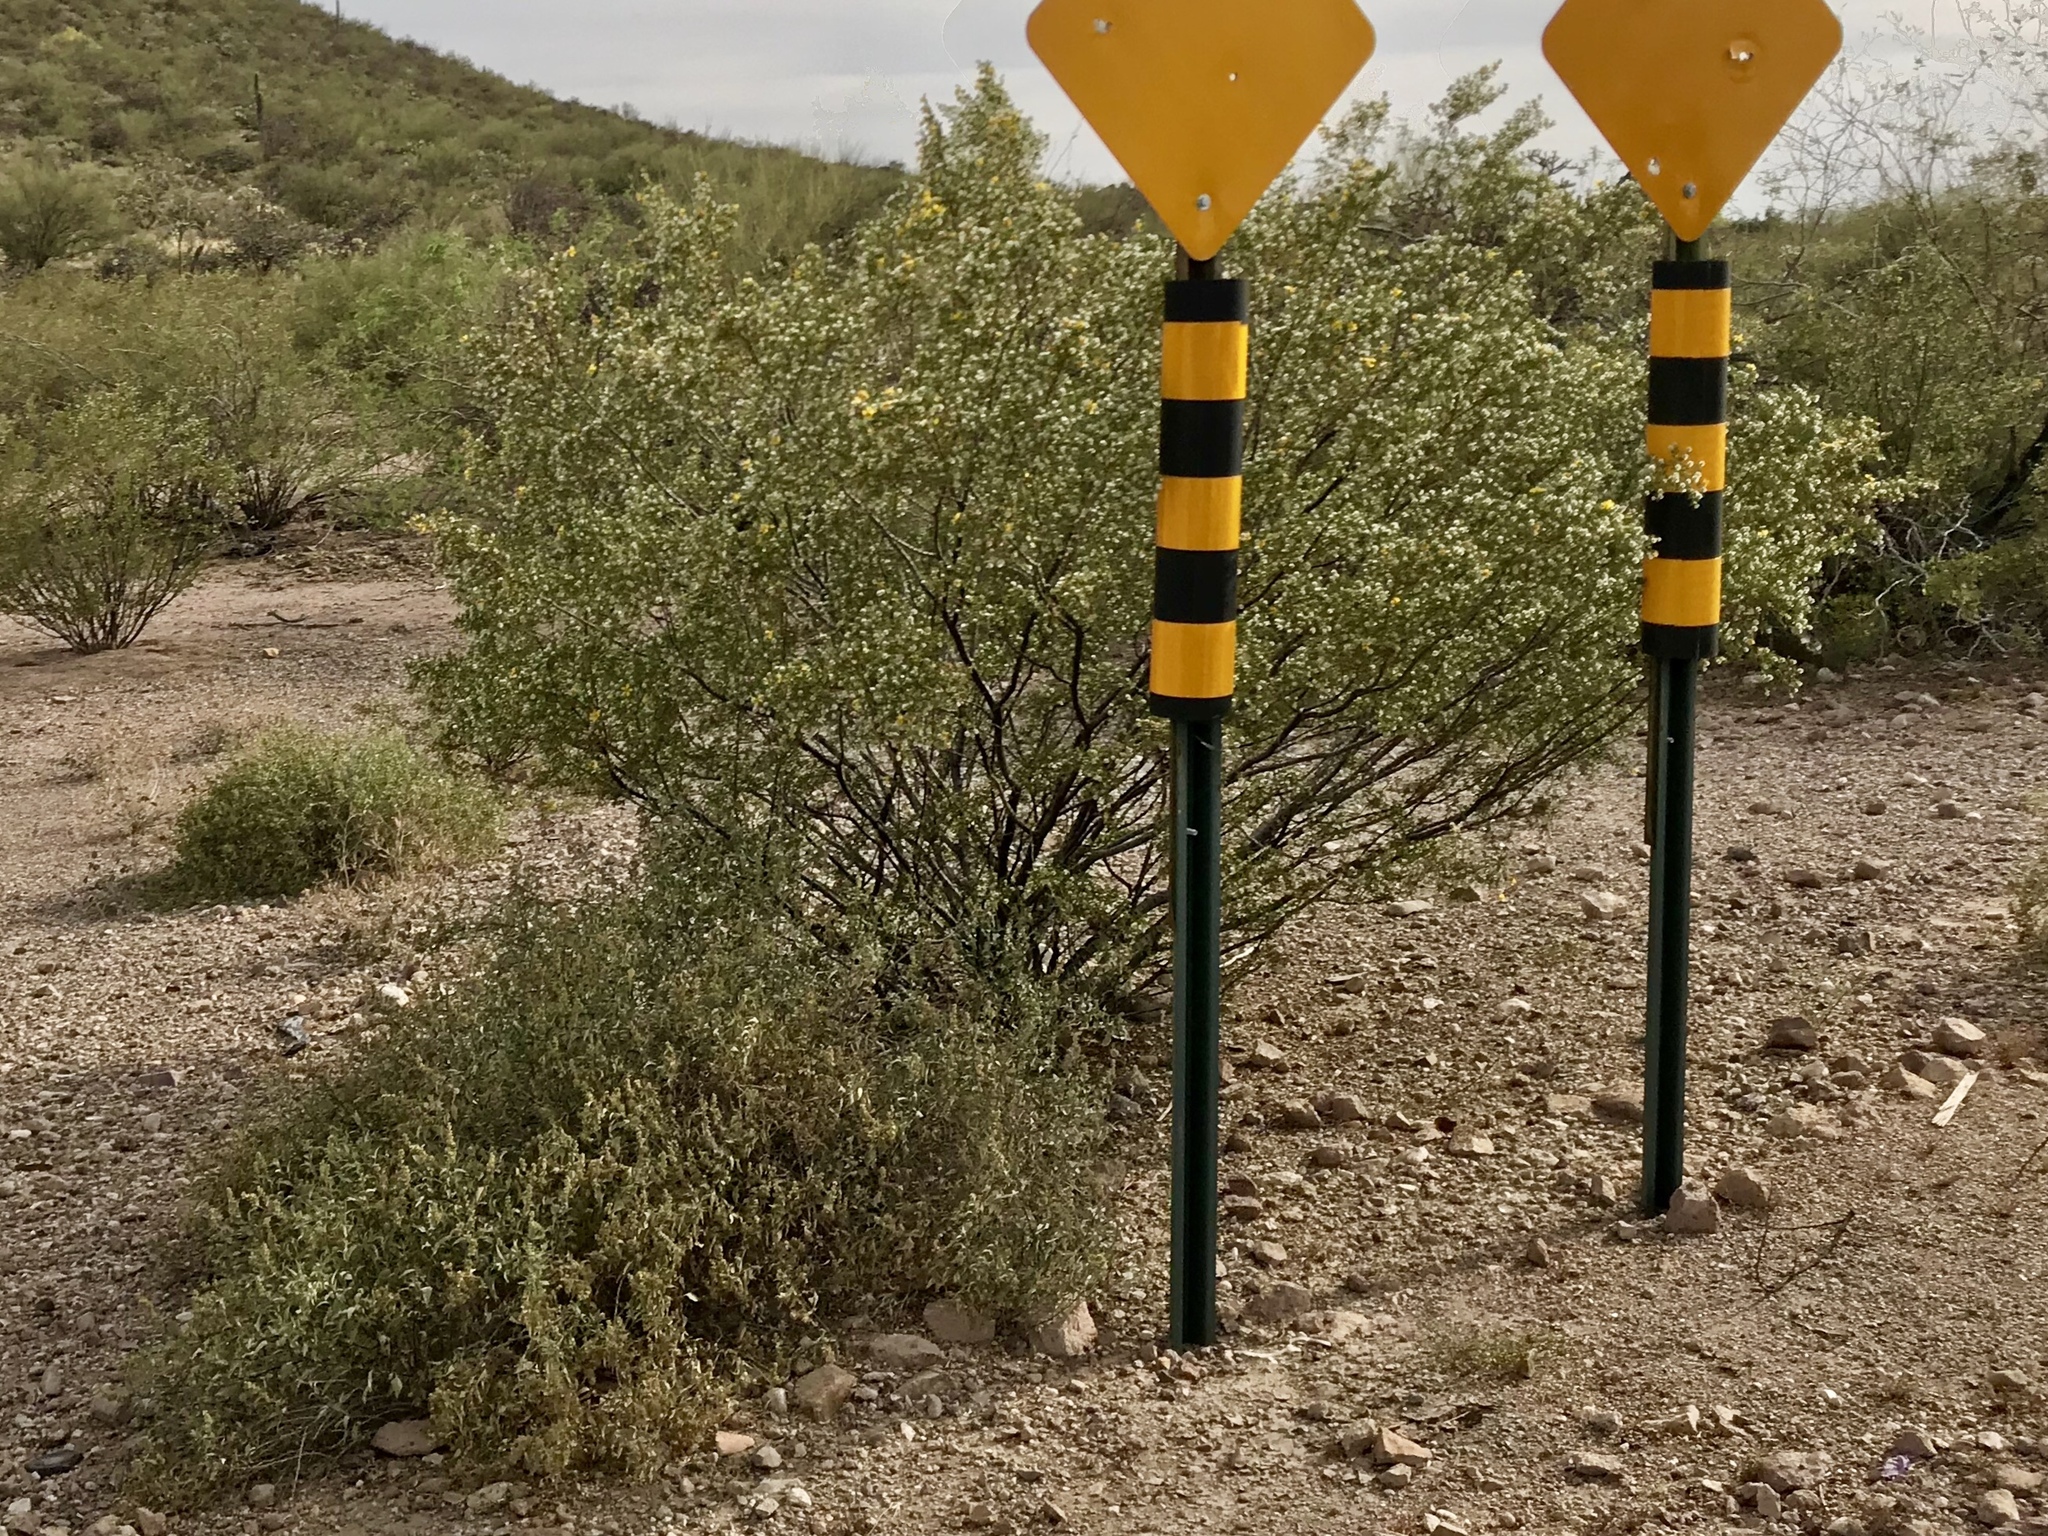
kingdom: Plantae
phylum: Tracheophyta
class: Magnoliopsida
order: Zygophyllales
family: Zygophyllaceae
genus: Larrea
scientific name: Larrea tridentata
